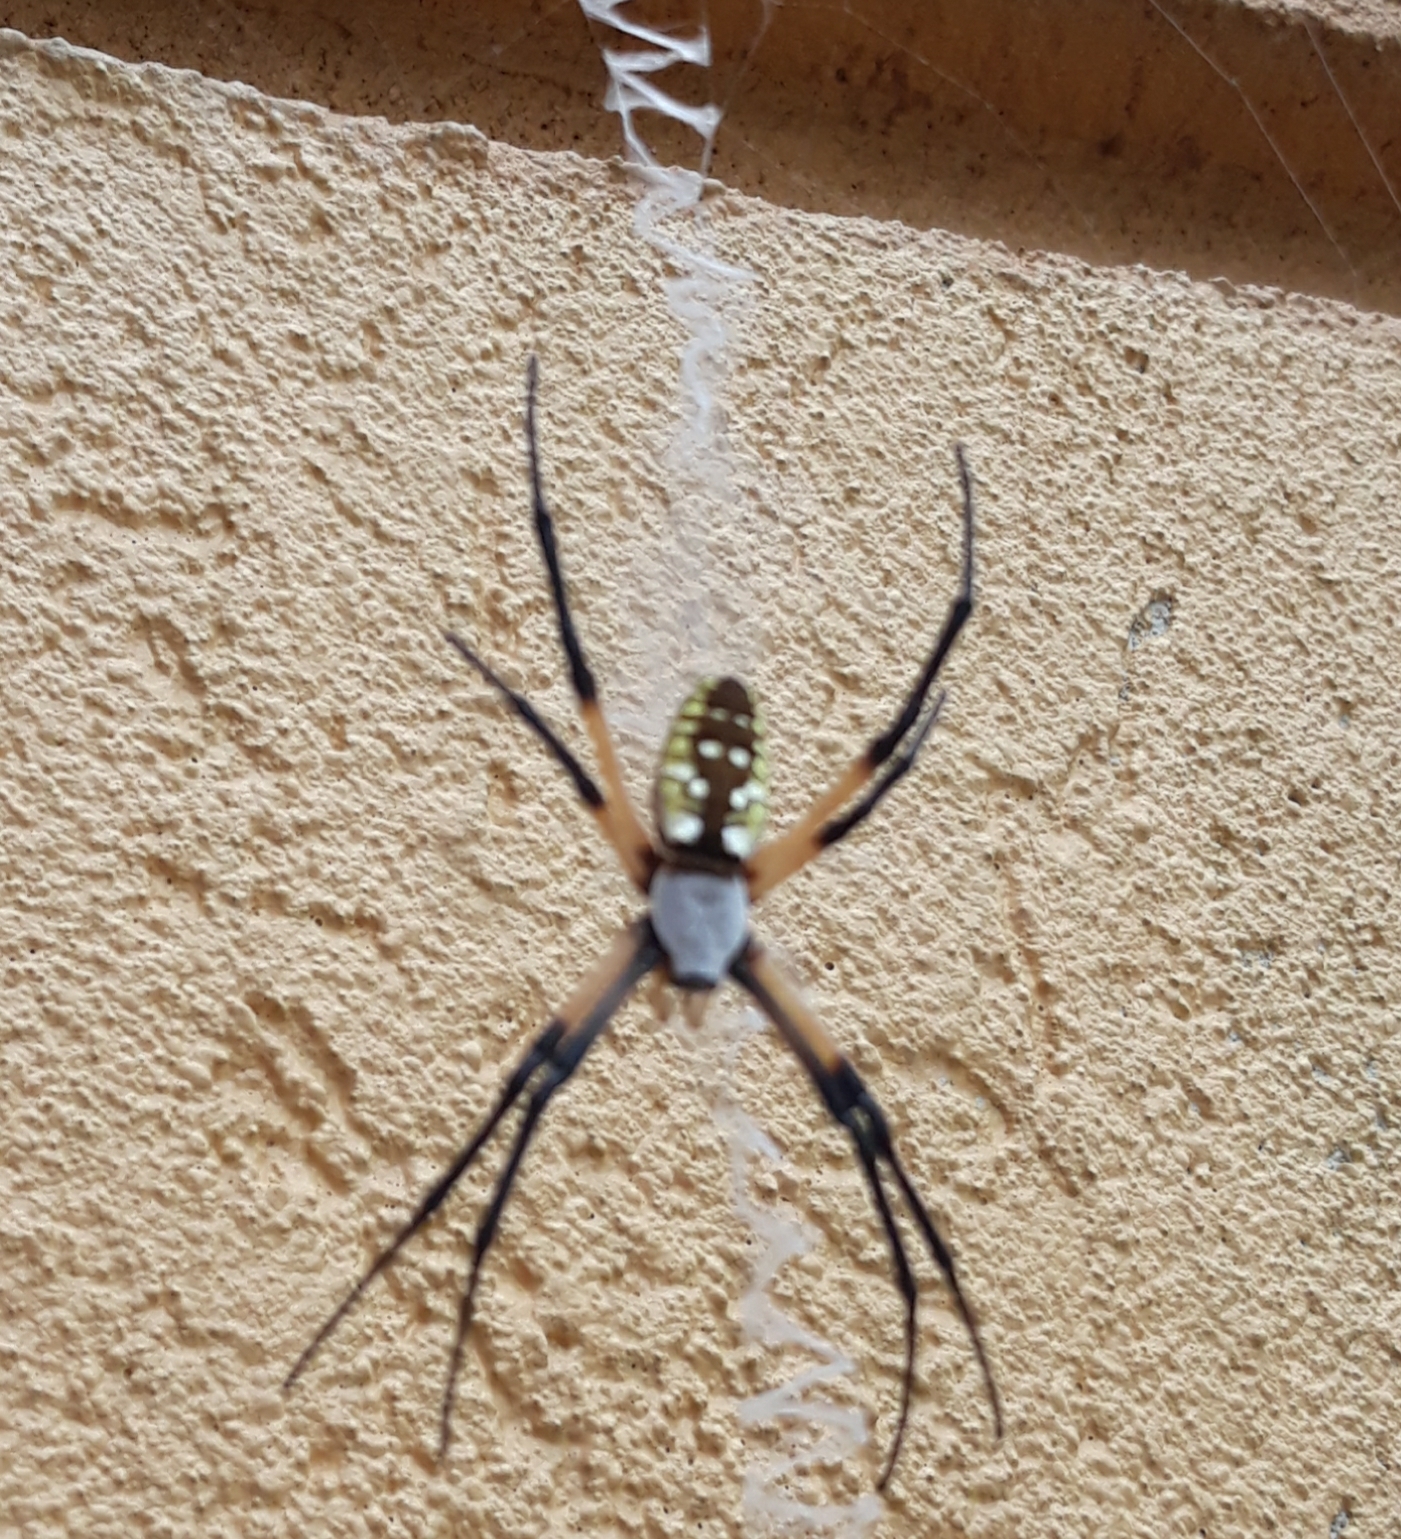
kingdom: Animalia
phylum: Arthropoda
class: Arachnida
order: Araneae
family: Araneidae
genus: Argiope
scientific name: Argiope aurantia
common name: Orb weavers
